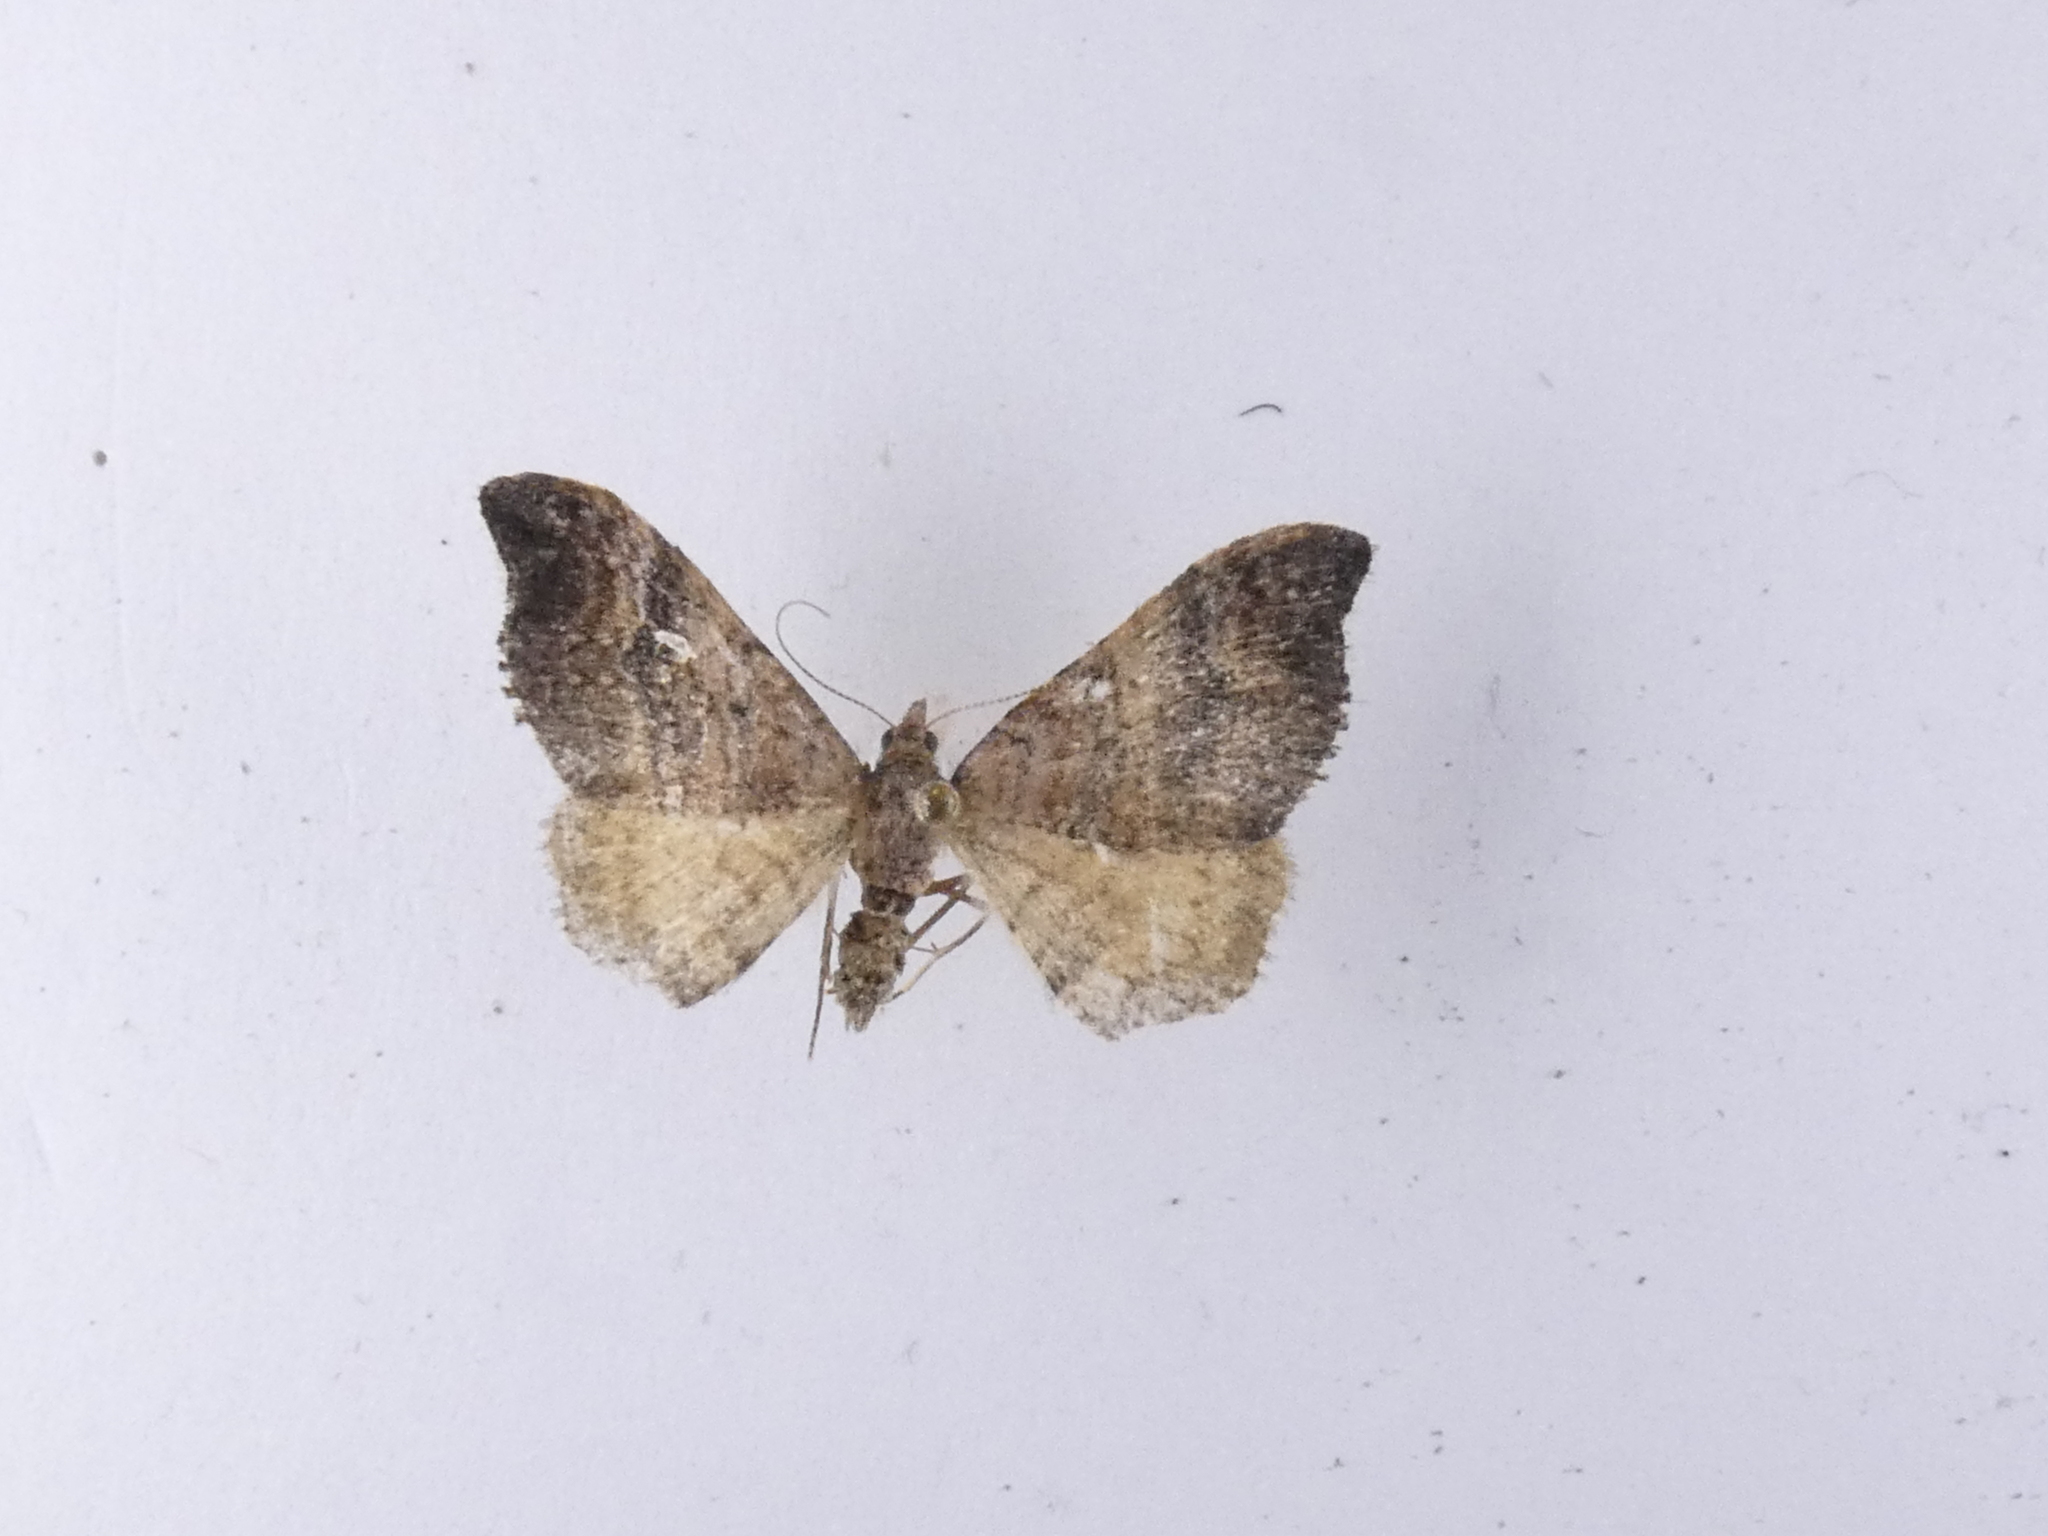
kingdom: Animalia
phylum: Arthropoda
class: Insecta
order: Lepidoptera
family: Geometridae
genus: Homodotis
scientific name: Homodotis megaspilata
